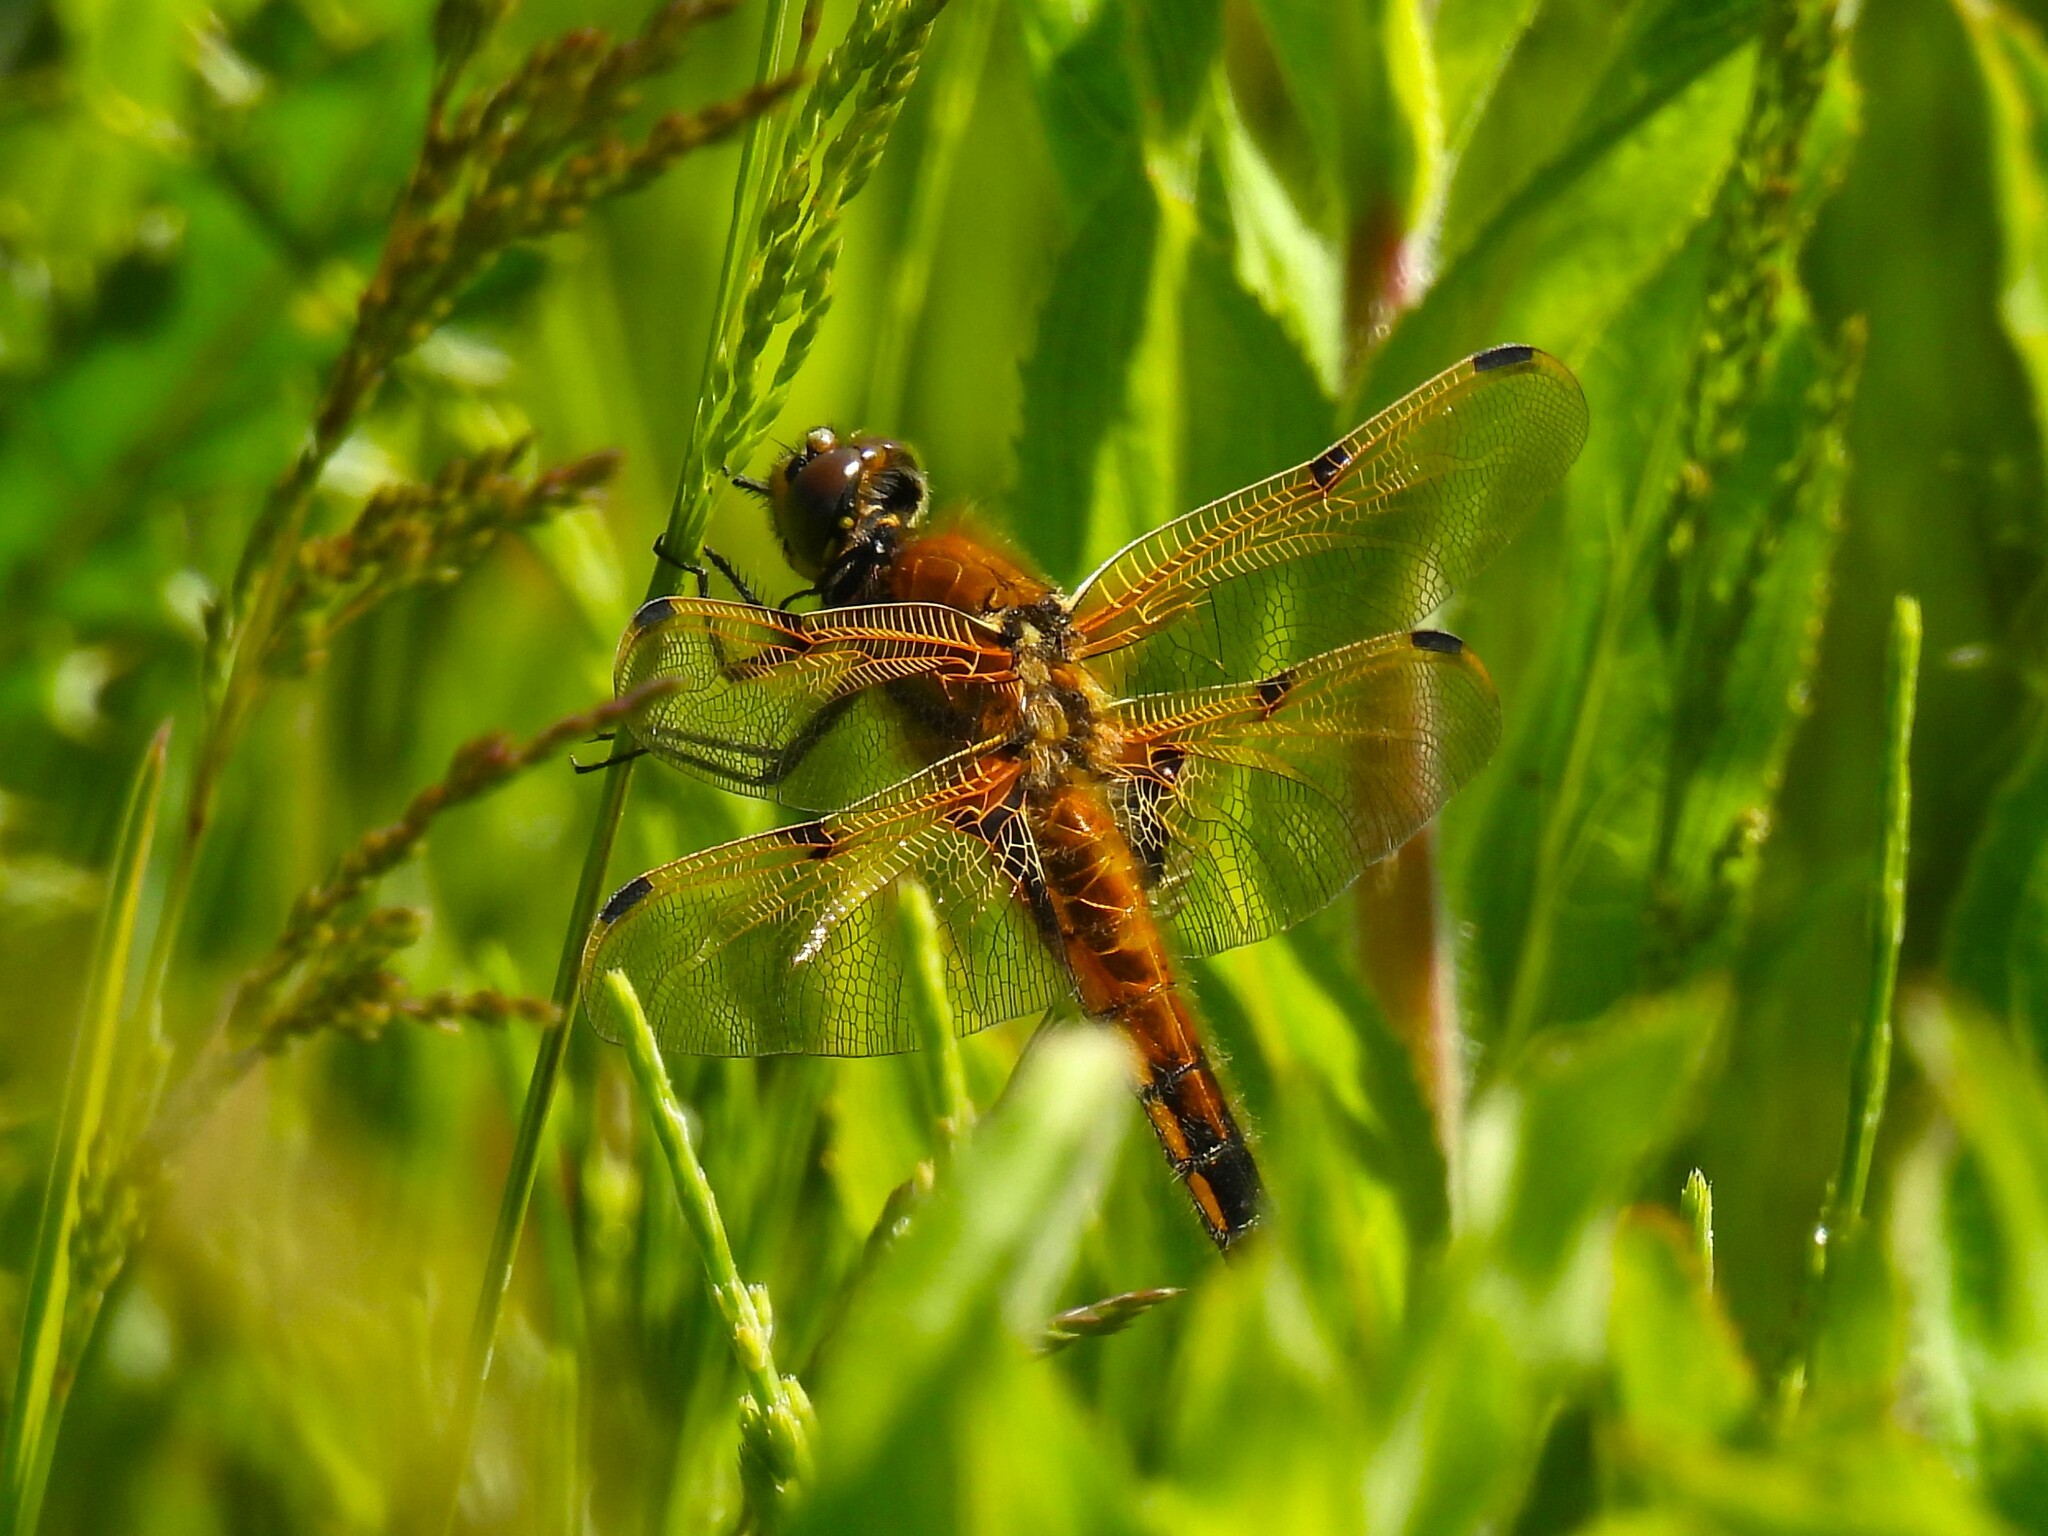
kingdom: Animalia
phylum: Arthropoda
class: Insecta
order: Odonata
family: Libellulidae
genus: Libellula
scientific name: Libellula quadrimaculata
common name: Four-spotted chaser
